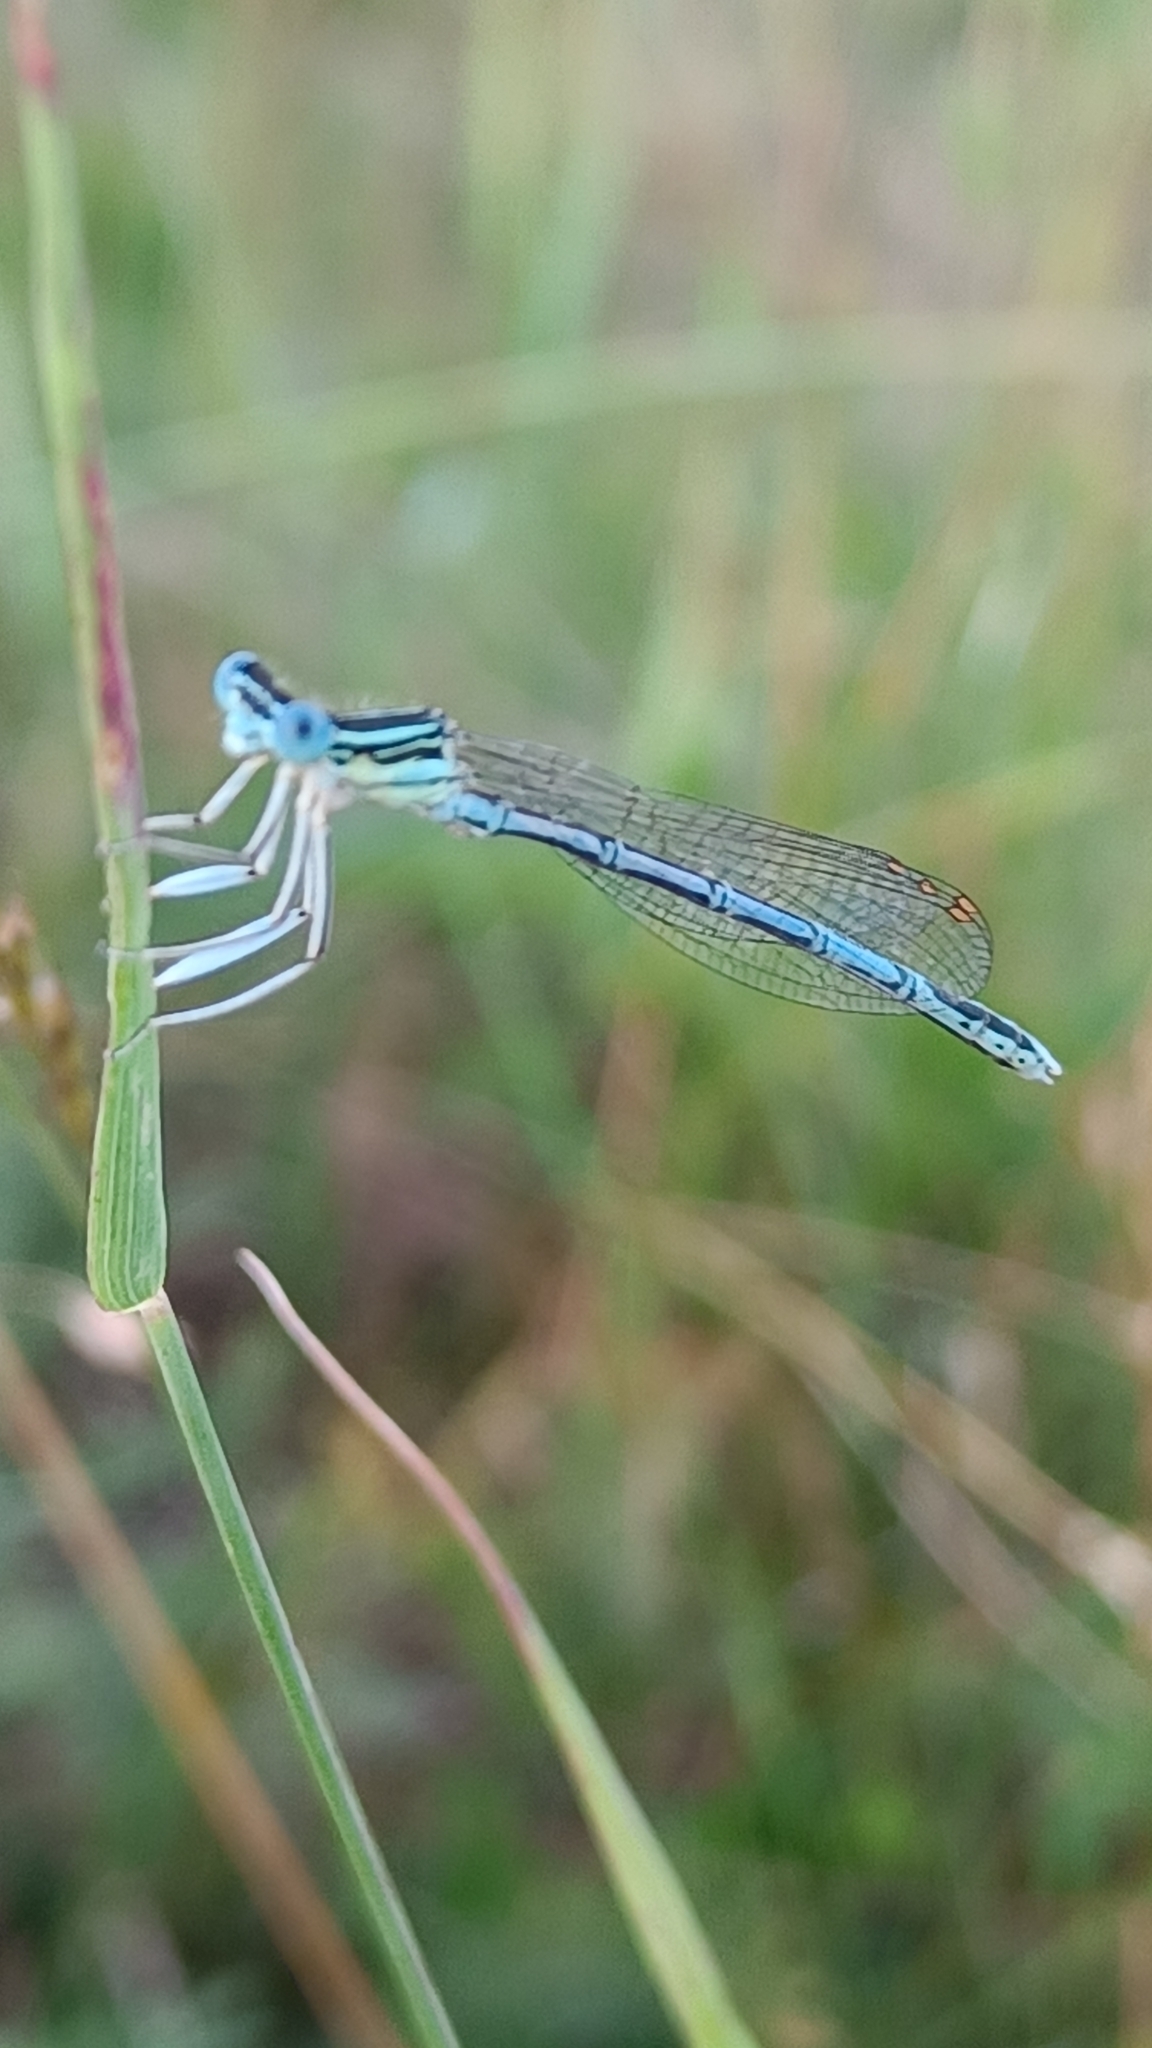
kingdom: Animalia
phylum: Arthropoda
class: Insecta
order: Odonata
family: Platycnemididae
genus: Platycnemis
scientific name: Platycnemis pennipes
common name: White-legged damselfly
